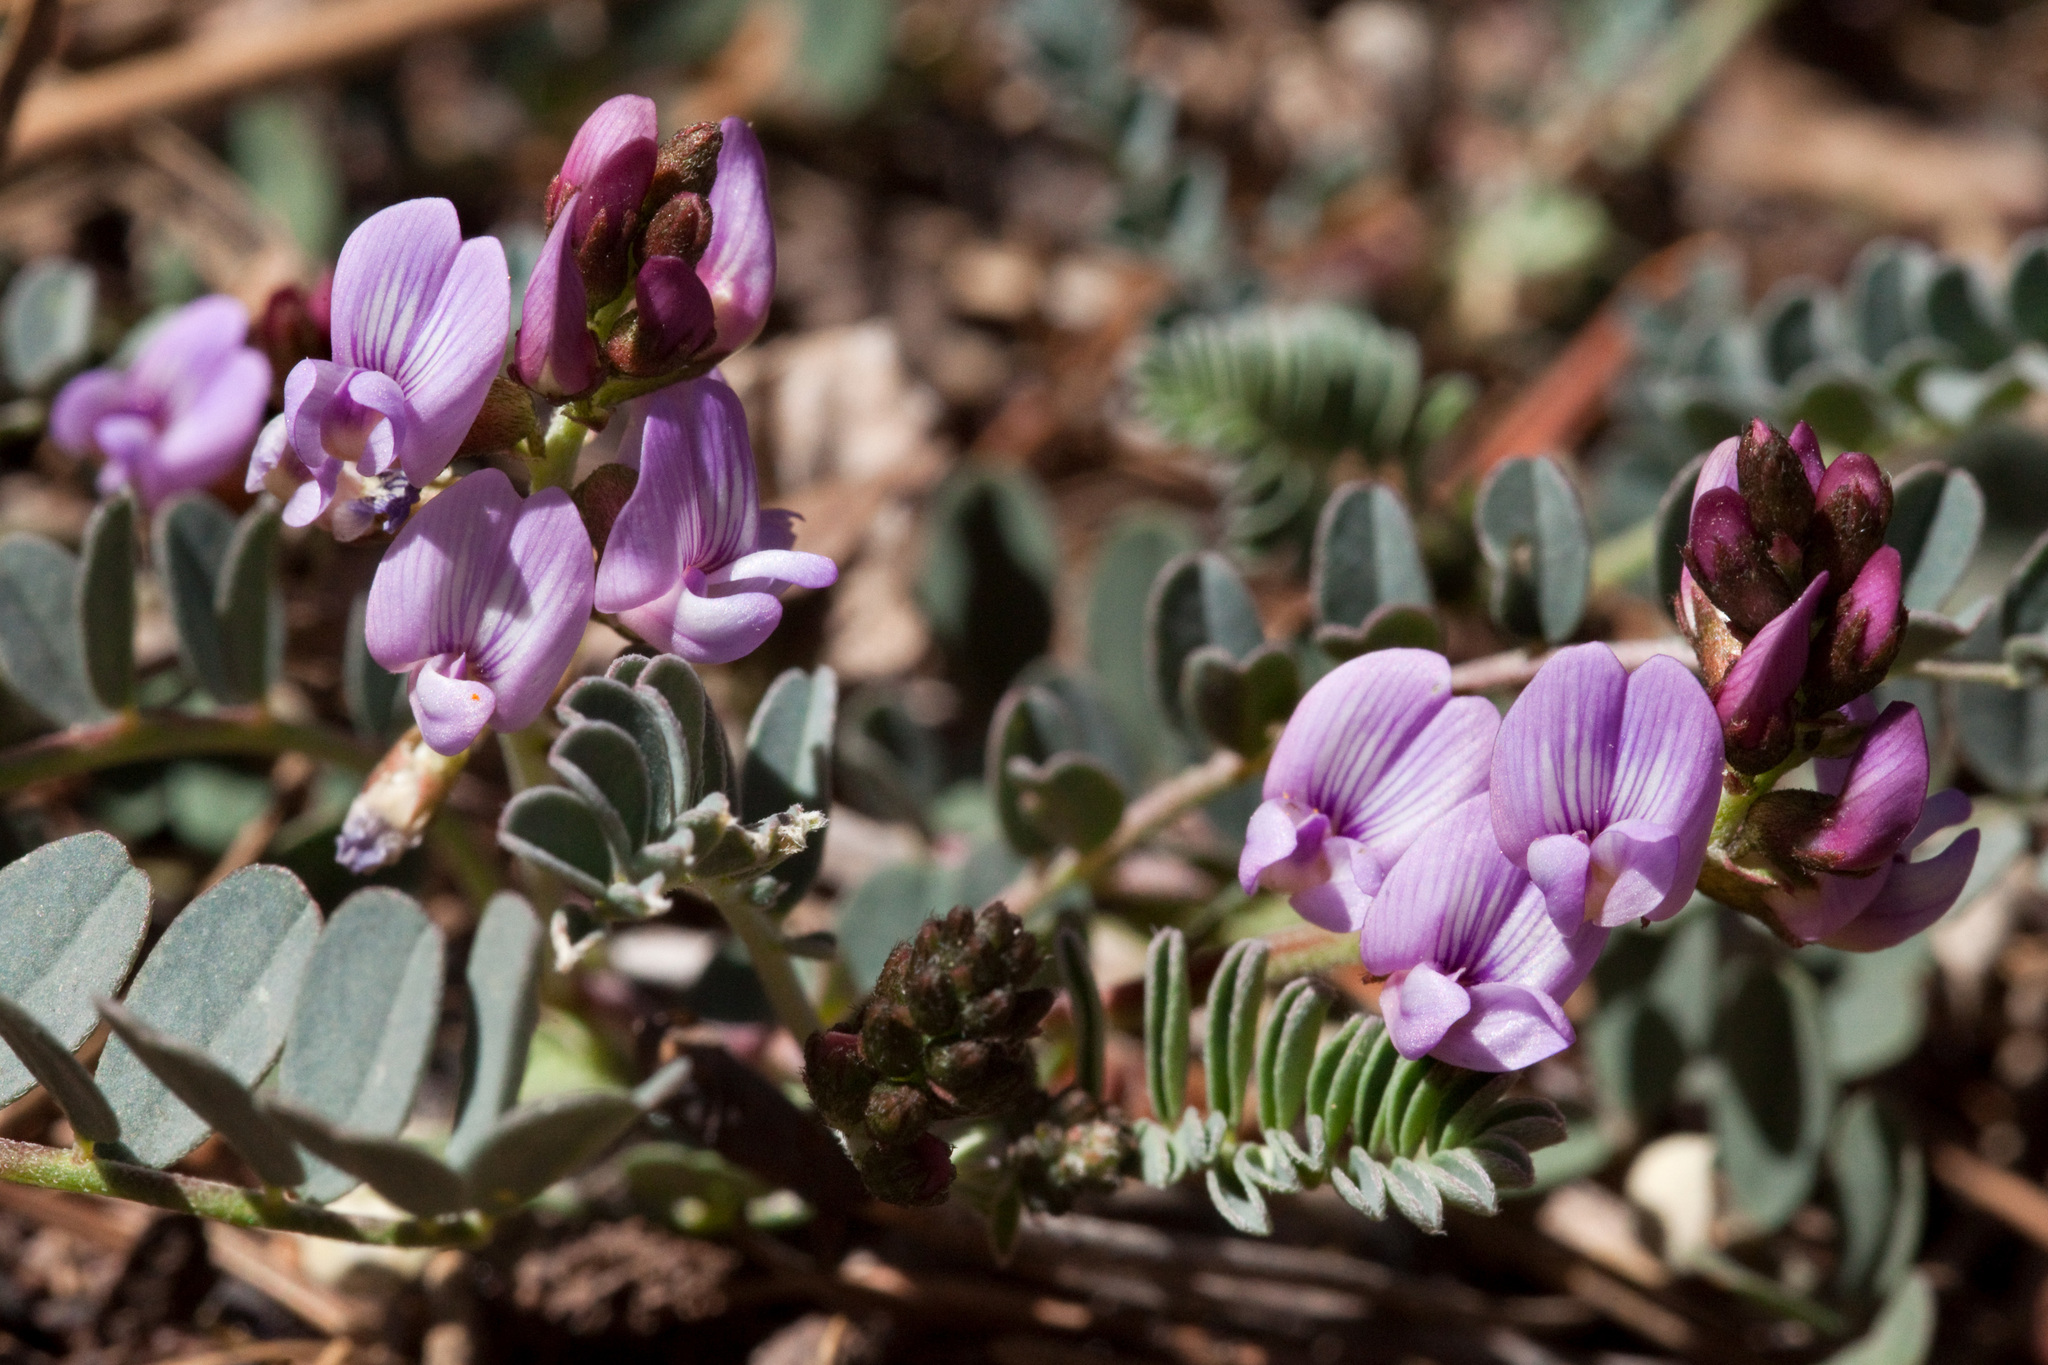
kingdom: Plantae
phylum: Tracheophyta
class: Magnoliopsida
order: Fabales
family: Fabaceae
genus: Astragalus
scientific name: Astragalus cobrensis
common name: Copper mine milkvetch
